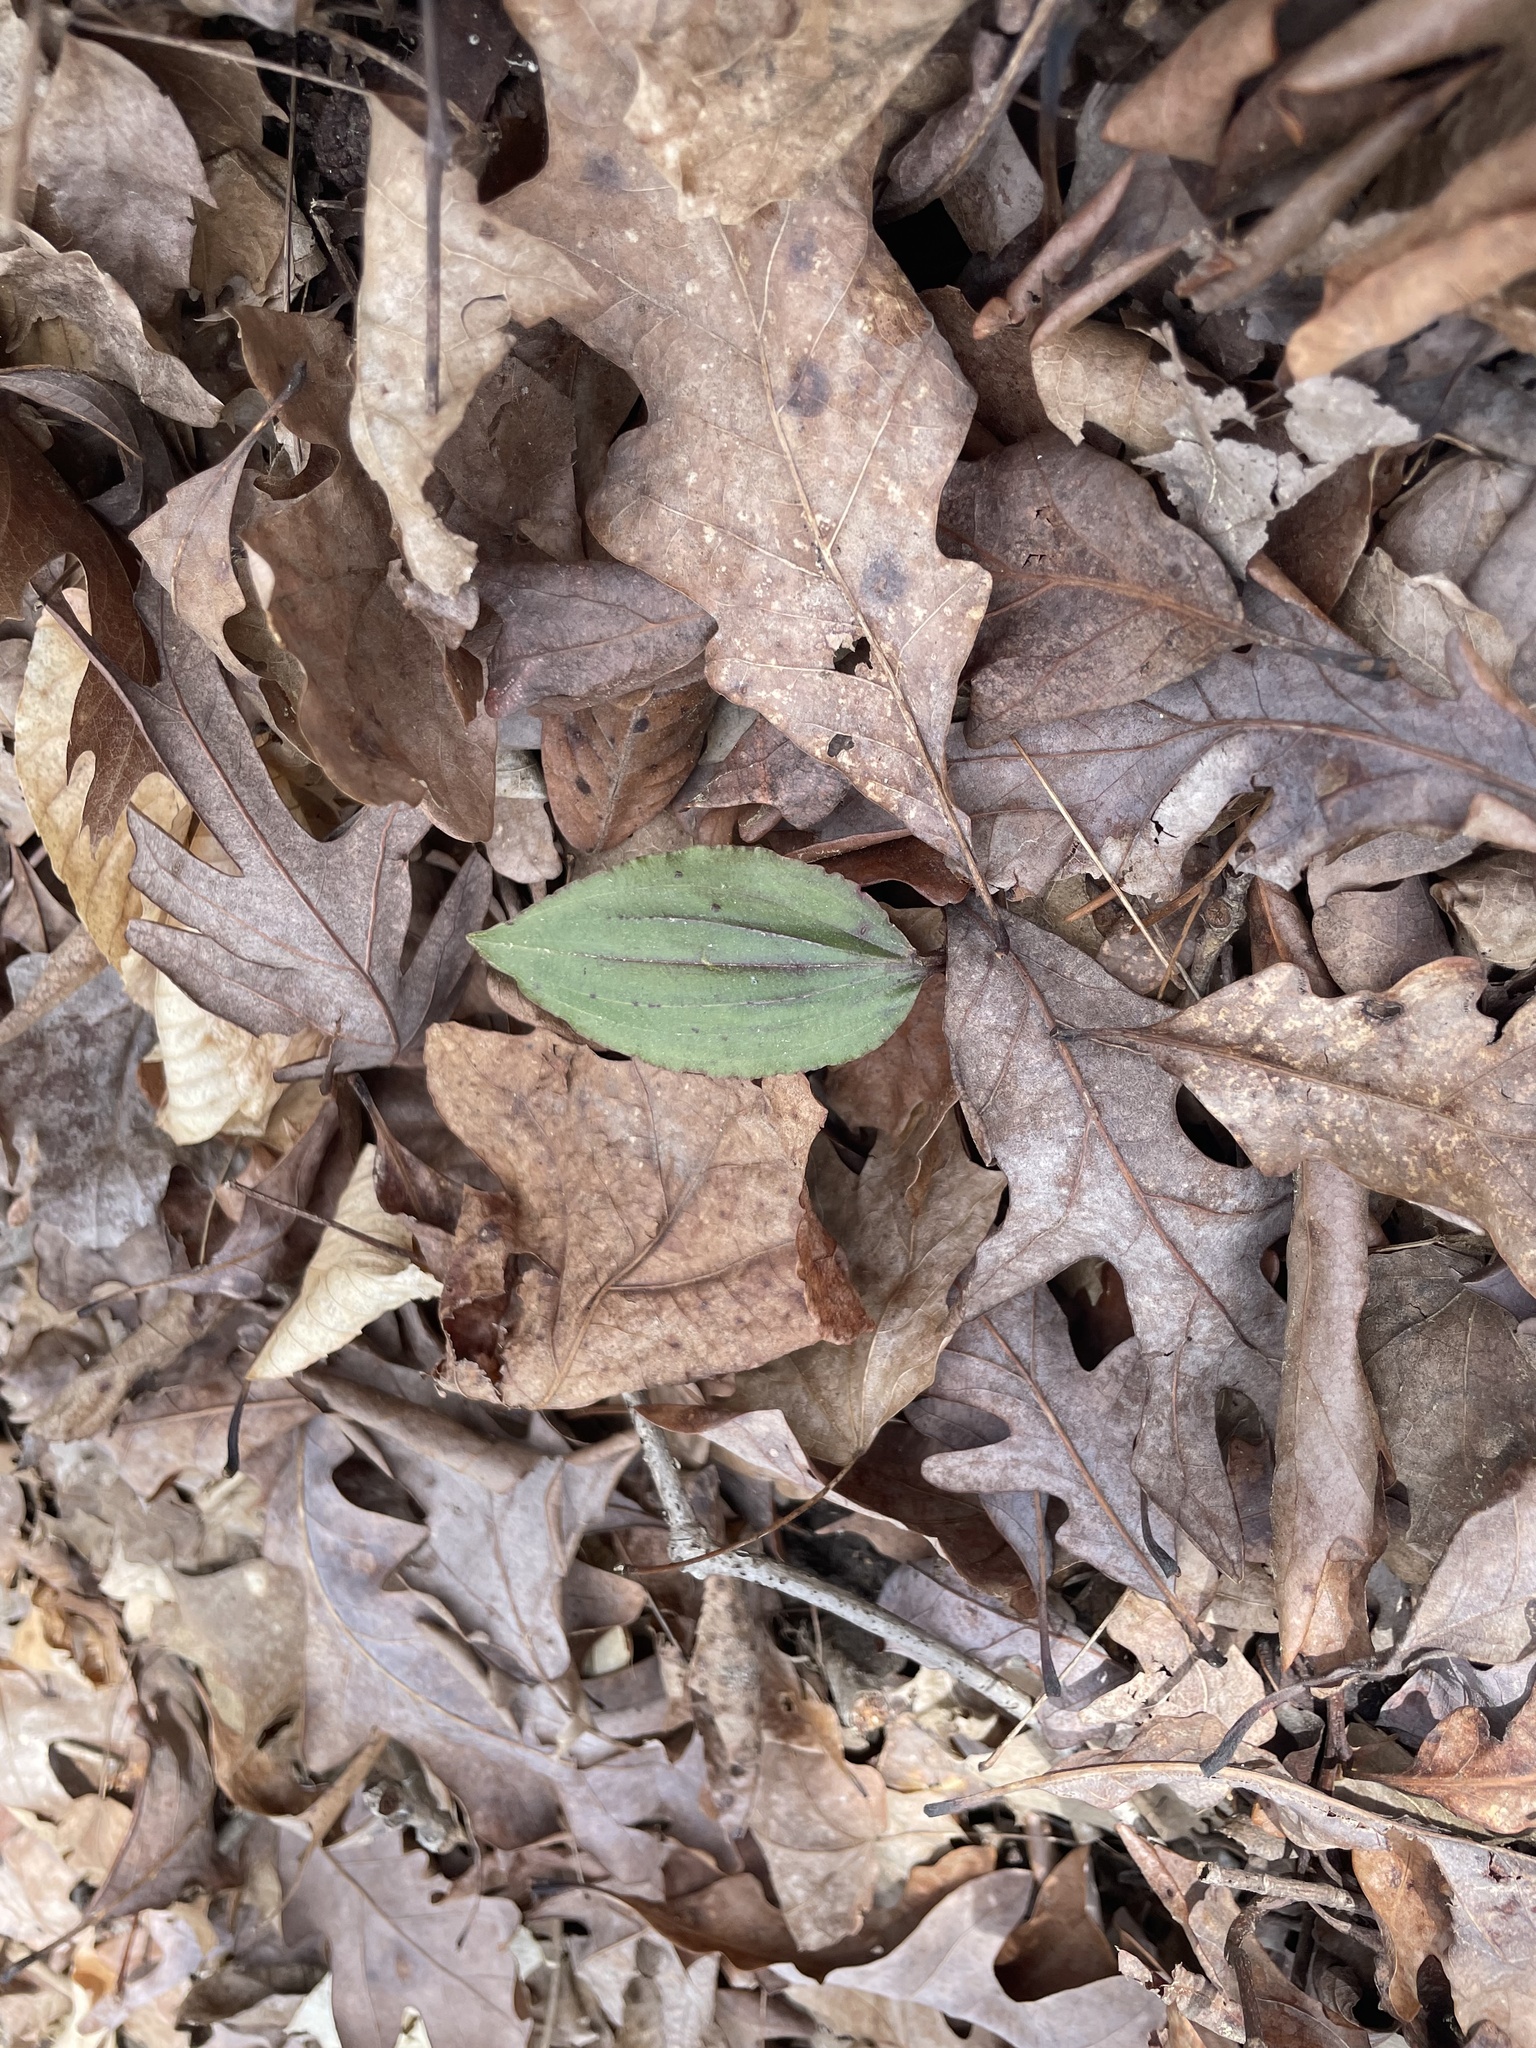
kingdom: Plantae
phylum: Tracheophyta
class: Liliopsida
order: Asparagales
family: Orchidaceae
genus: Tipularia
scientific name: Tipularia discolor
